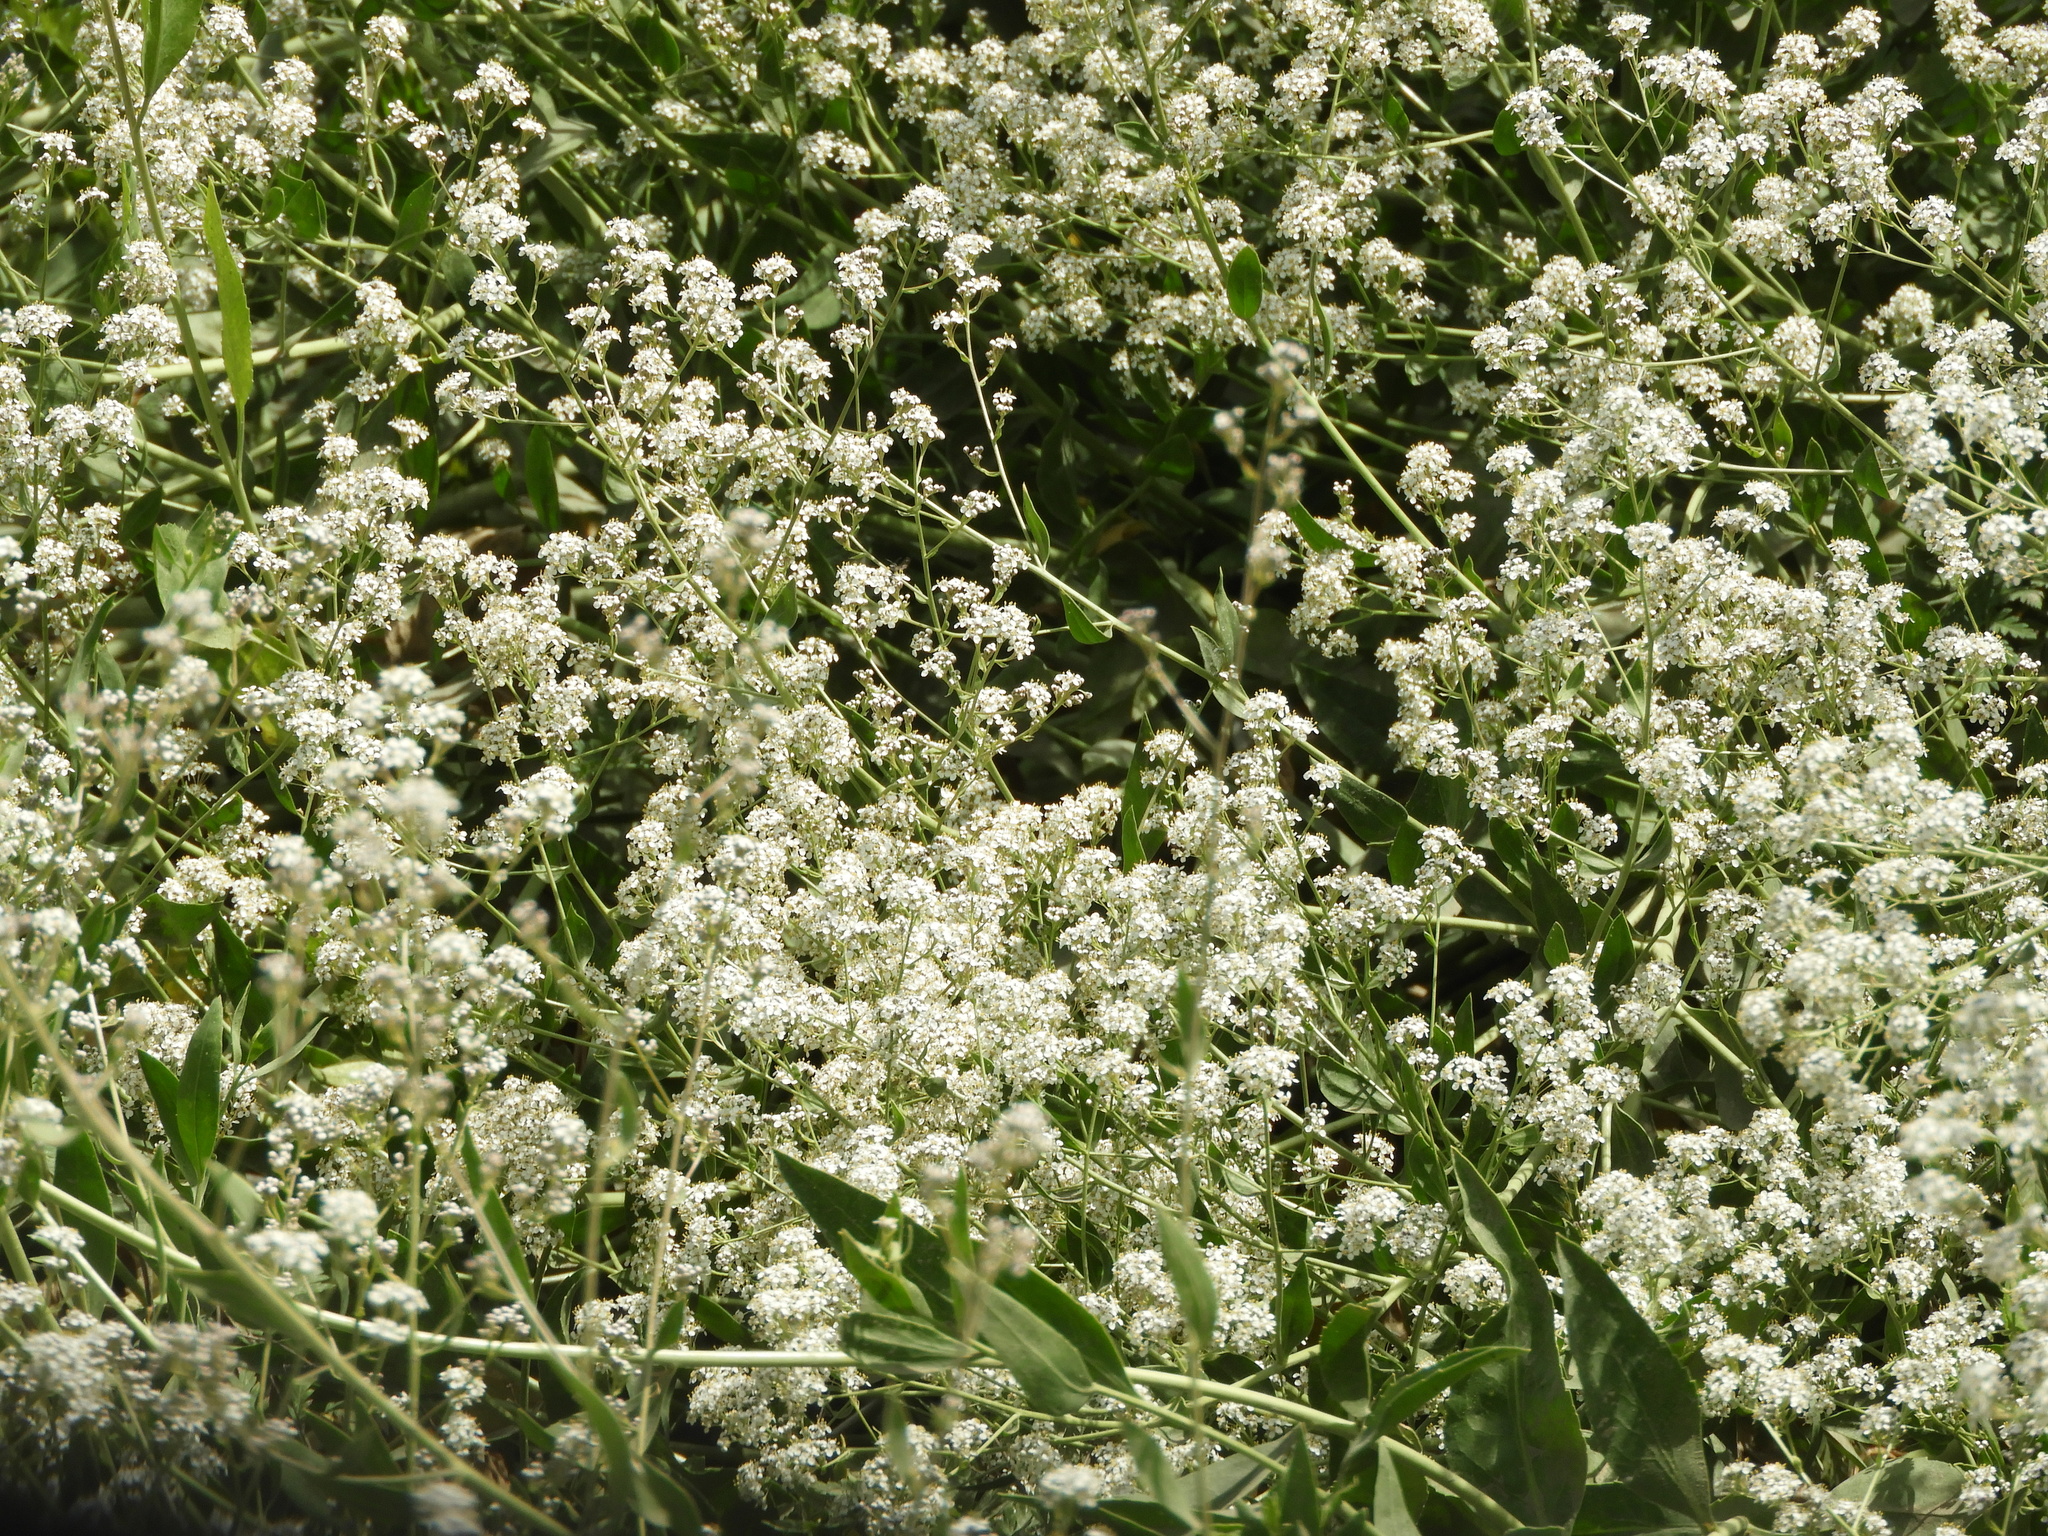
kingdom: Plantae
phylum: Tracheophyta
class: Magnoliopsida
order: Brassicales
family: Brassicaceae
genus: Lepidium
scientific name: Lepidium latifolium
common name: Dittander
